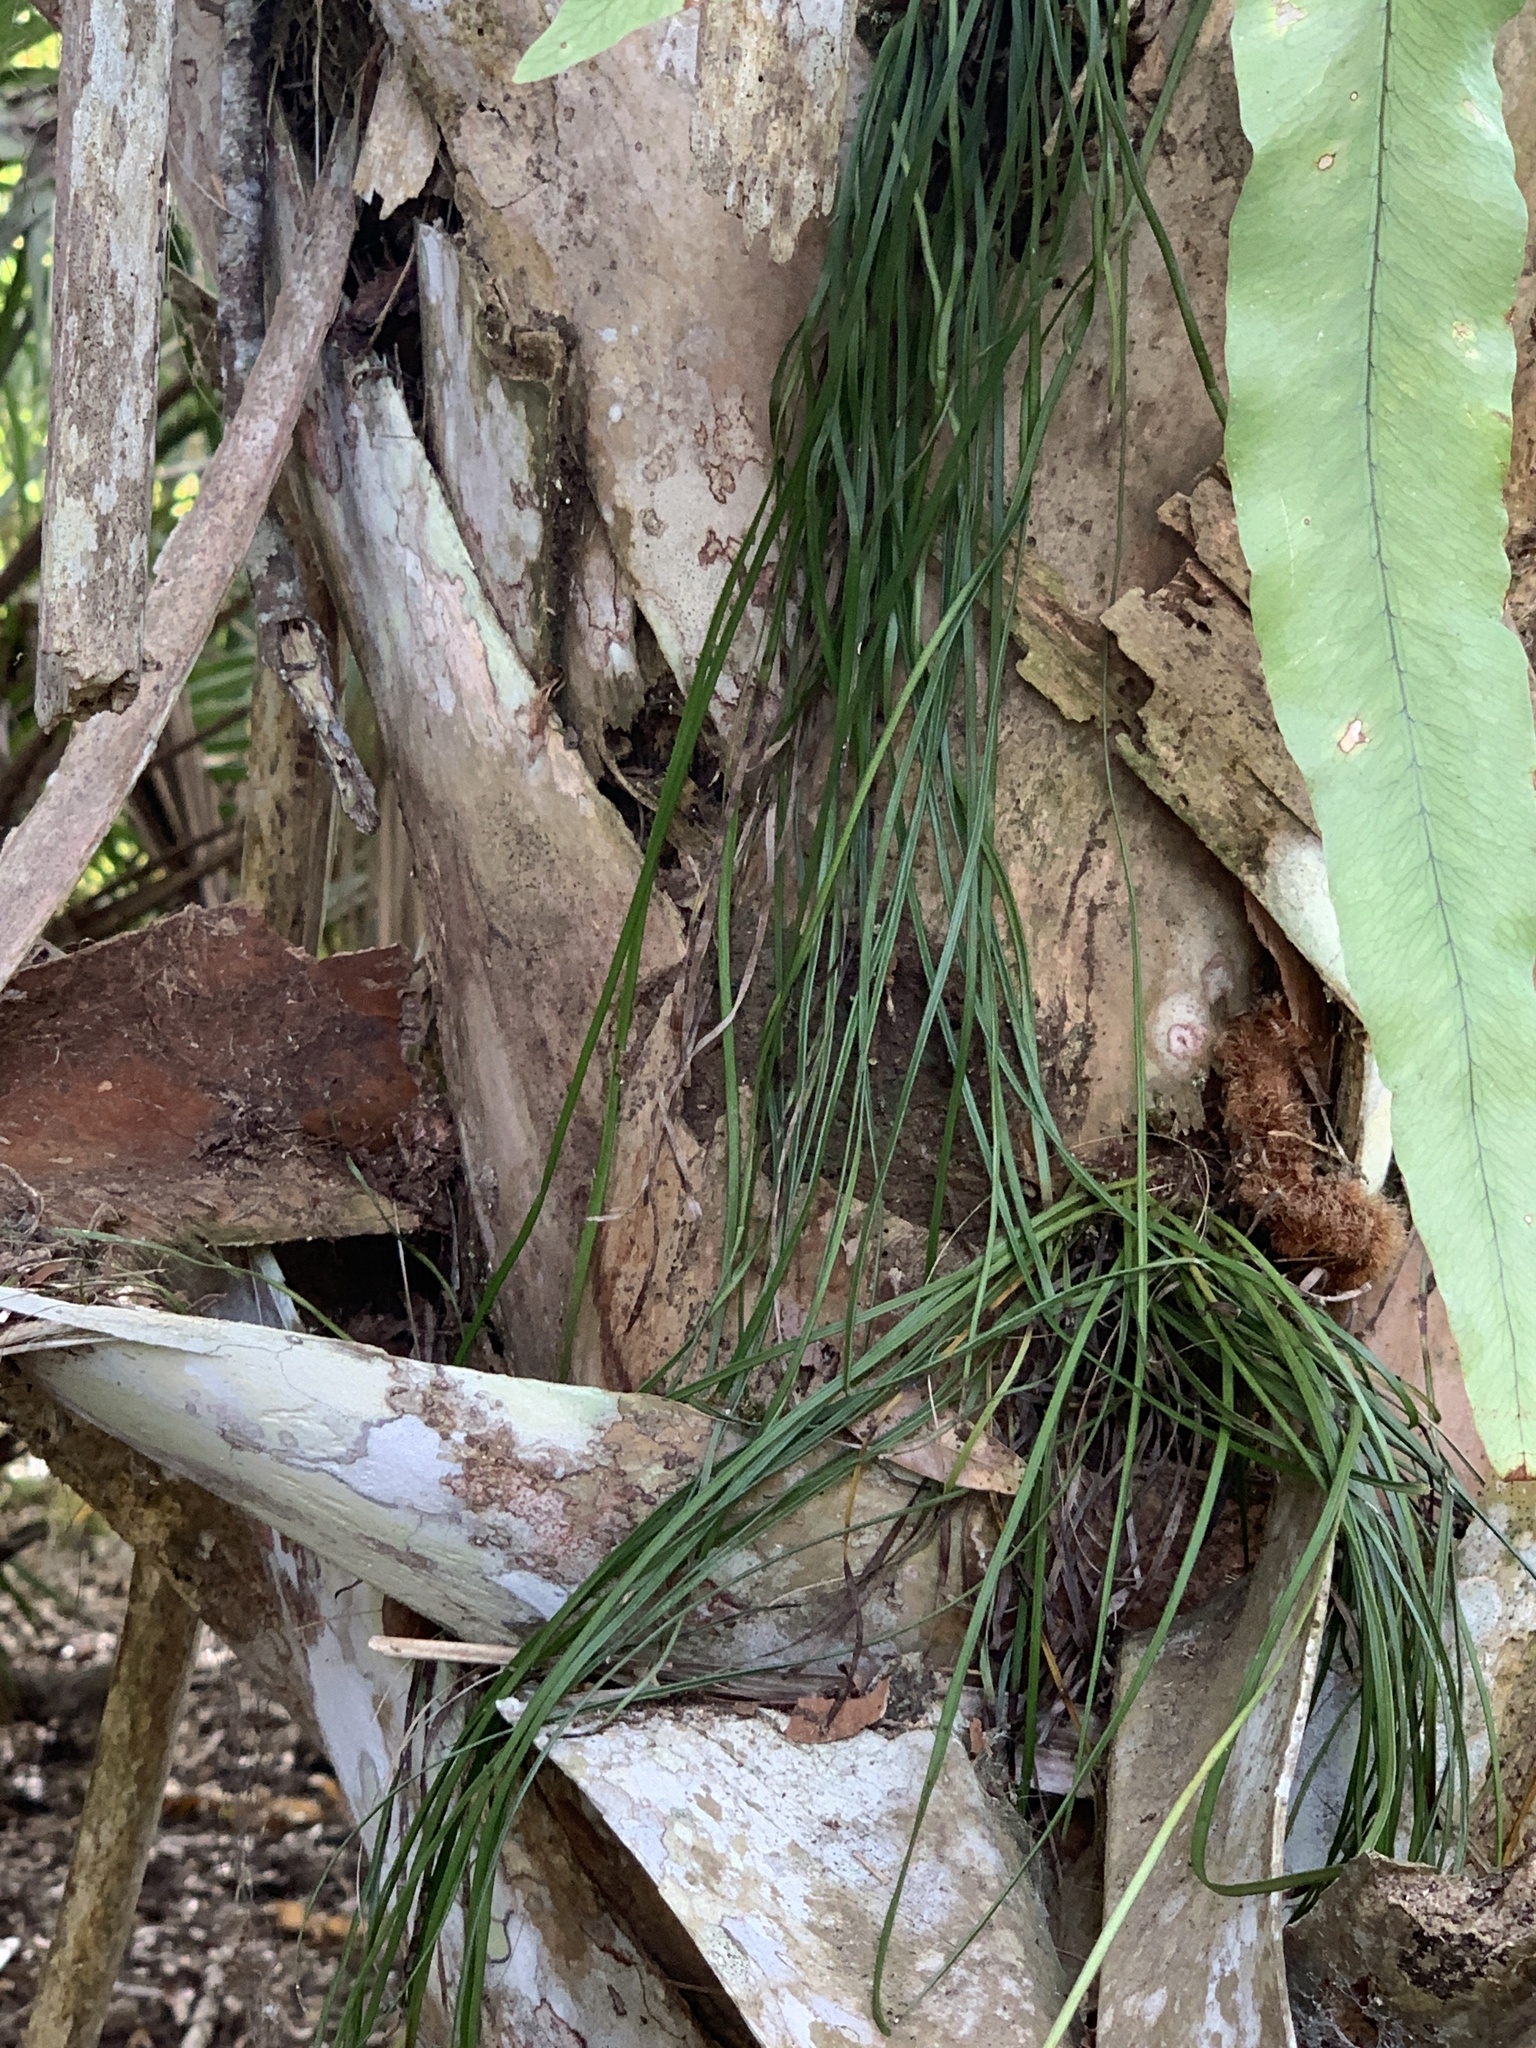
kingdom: Plantae
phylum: Tracheophyta
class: Polypodiopsida
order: Polypodiales
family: Pteridaceae
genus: Vittaria
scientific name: Vittaria lineata
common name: Shoestring fern
